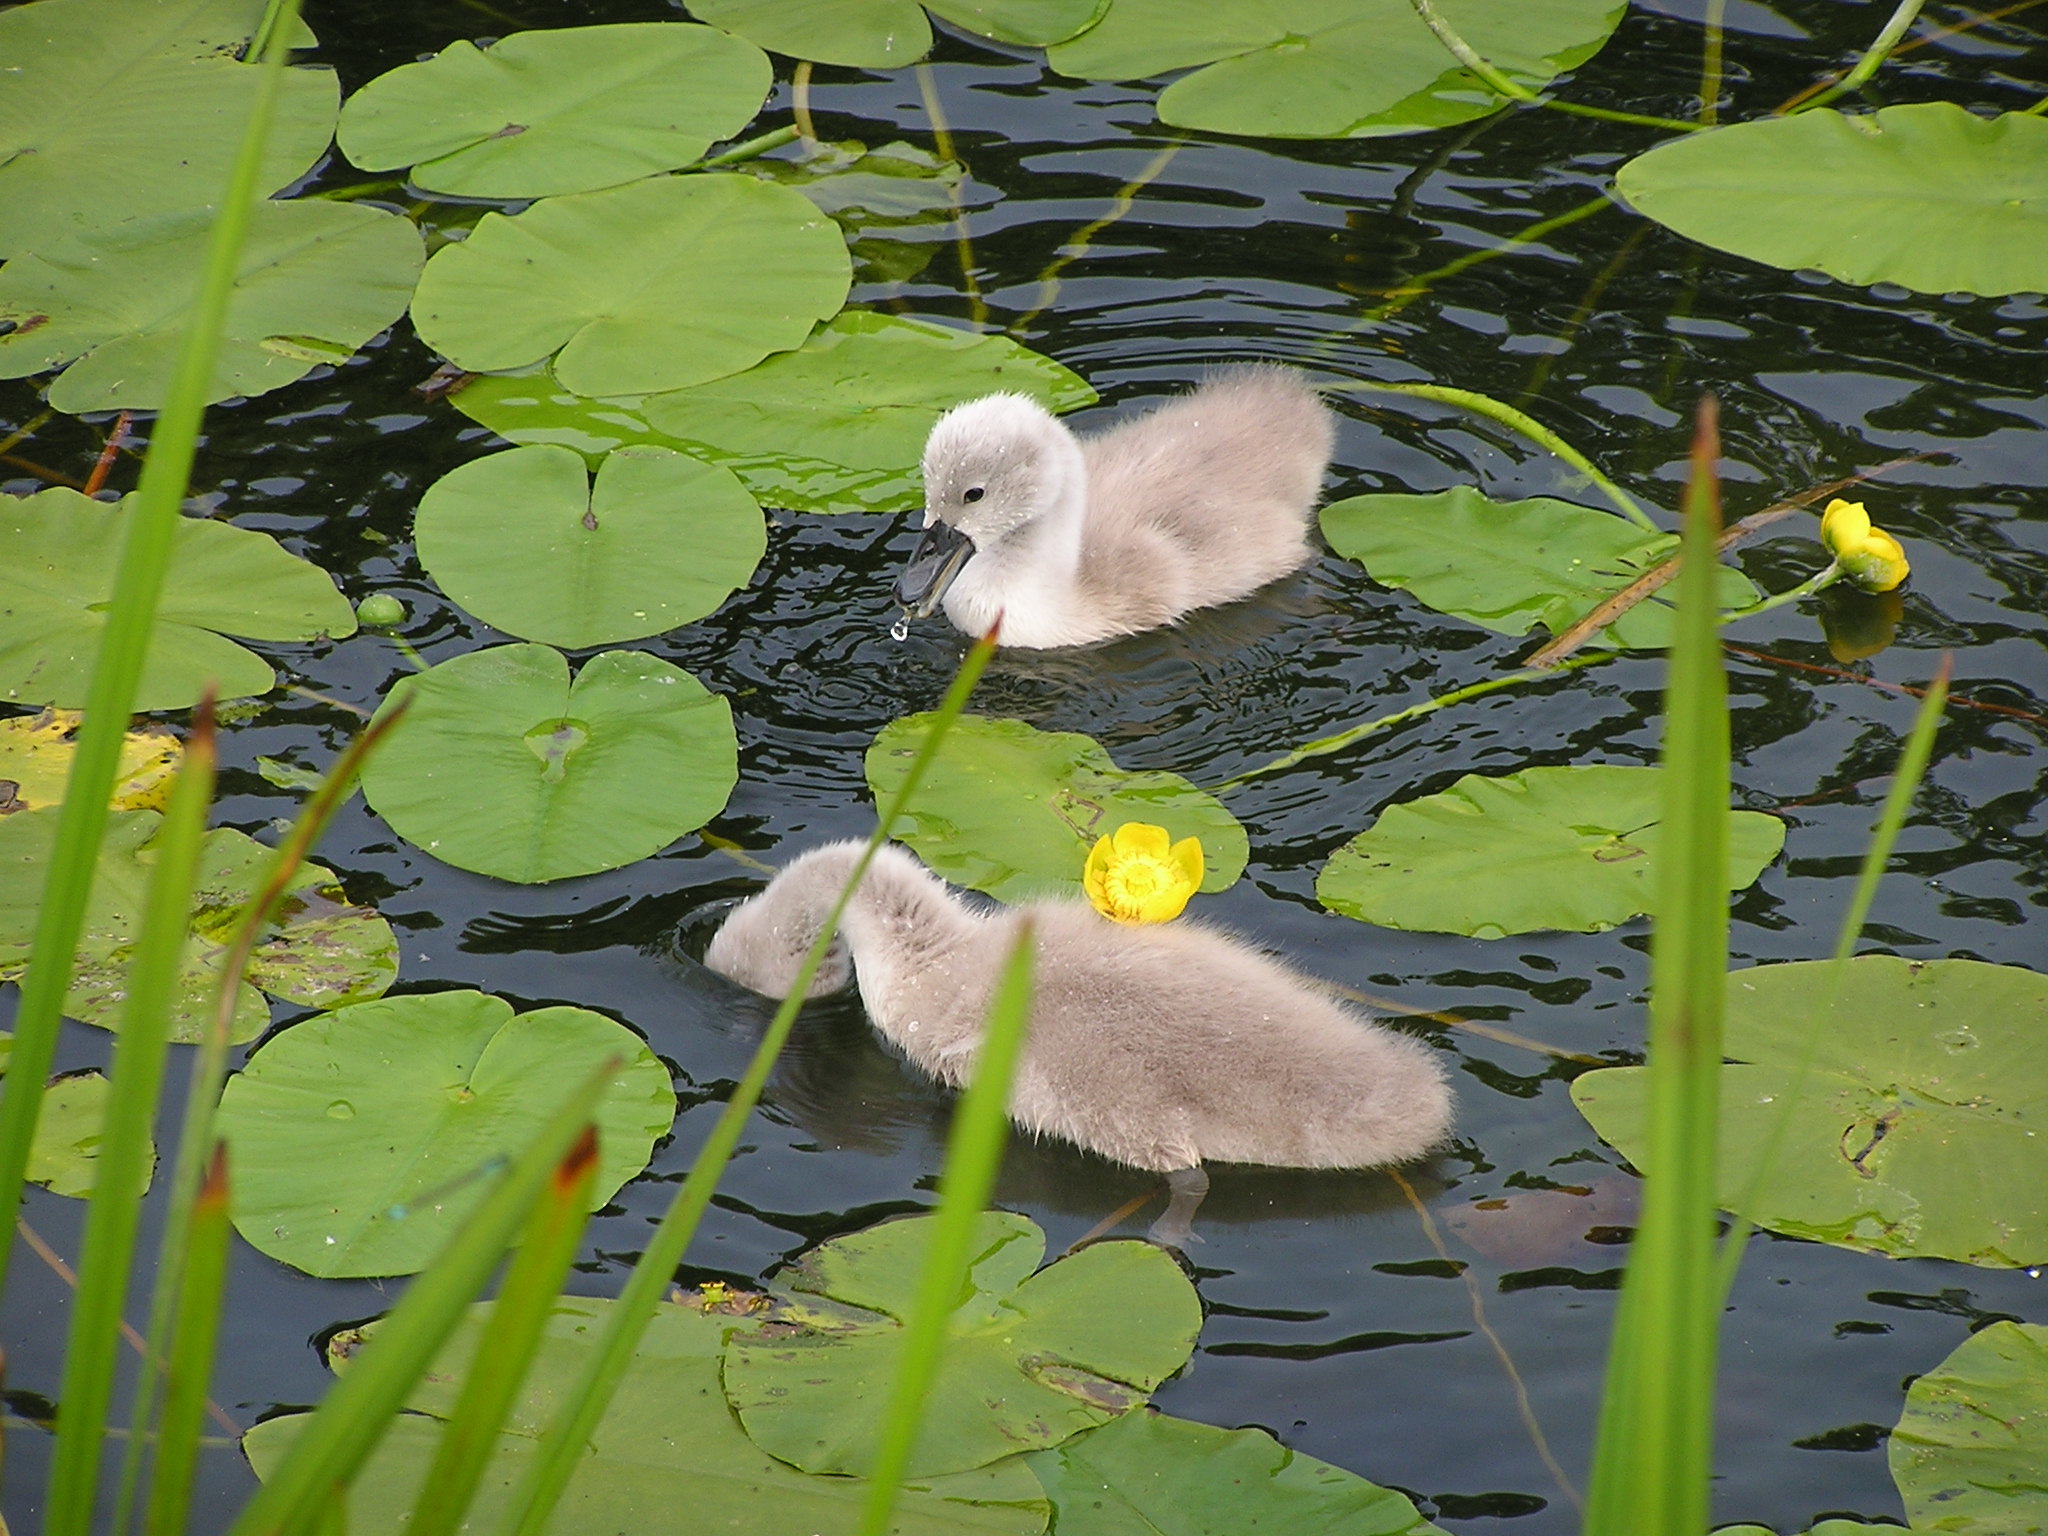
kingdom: Animalia
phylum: Chordata
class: Aves
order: Anseriformes
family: Anatidae
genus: Cygnus
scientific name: Cygnus olor
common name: Mute swan
